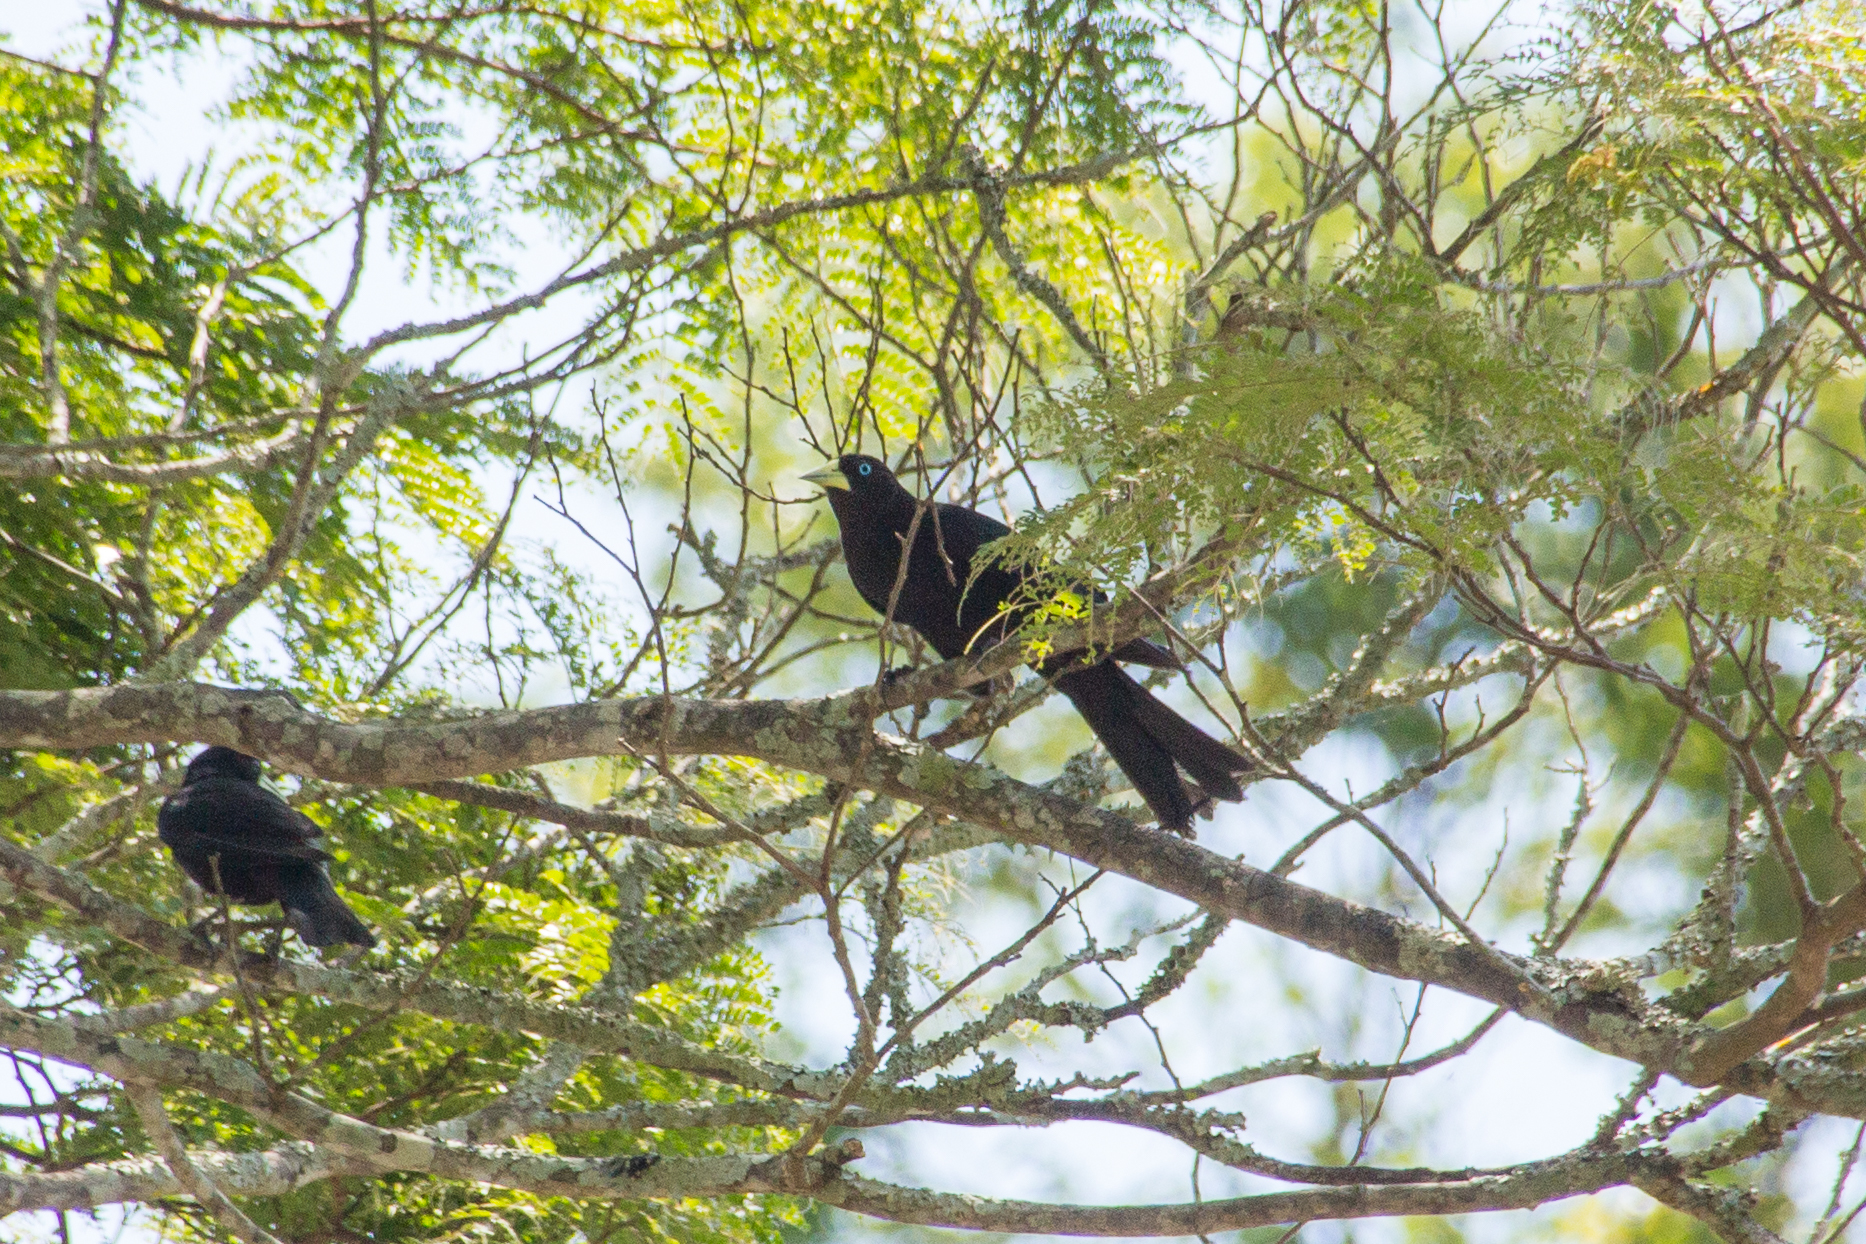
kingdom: Animalia
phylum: Chordata
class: Aves
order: Passeriformes
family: Icteridae
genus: Cacicus
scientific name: Cacicus haemorrhous
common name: Red-rumped cacique
